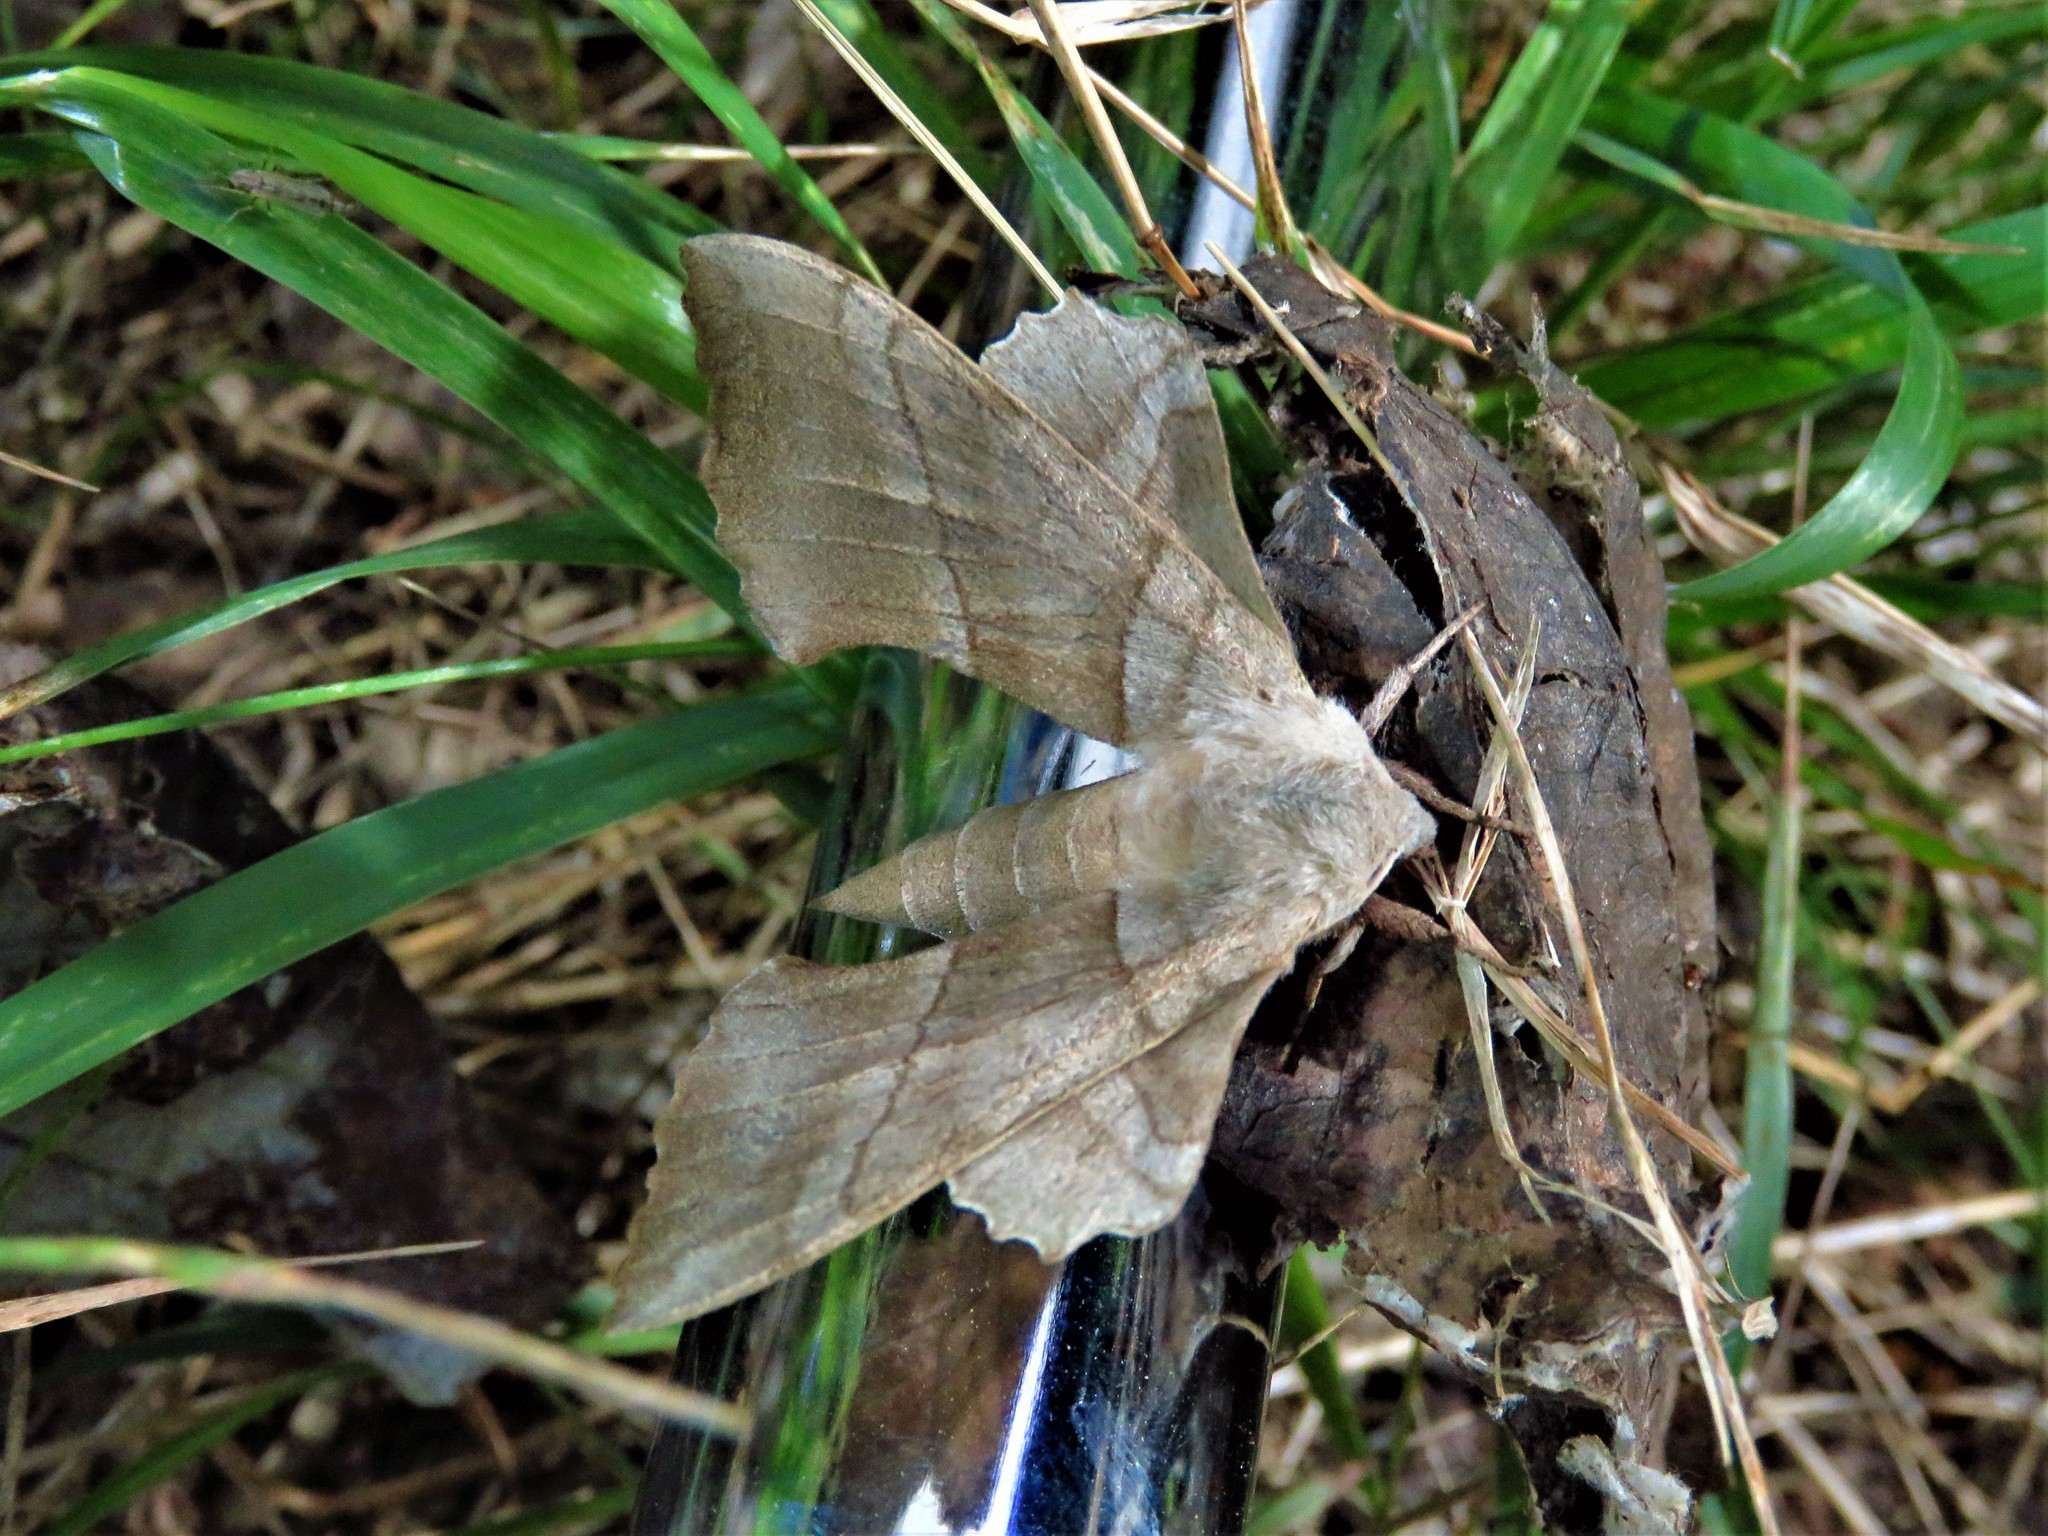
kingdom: Animalia
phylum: Arthropoda
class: Insecta
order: Lepidoptera
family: Sphingidae
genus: Amorpha
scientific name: Amorpha juglandis
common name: Walnut sphinx
